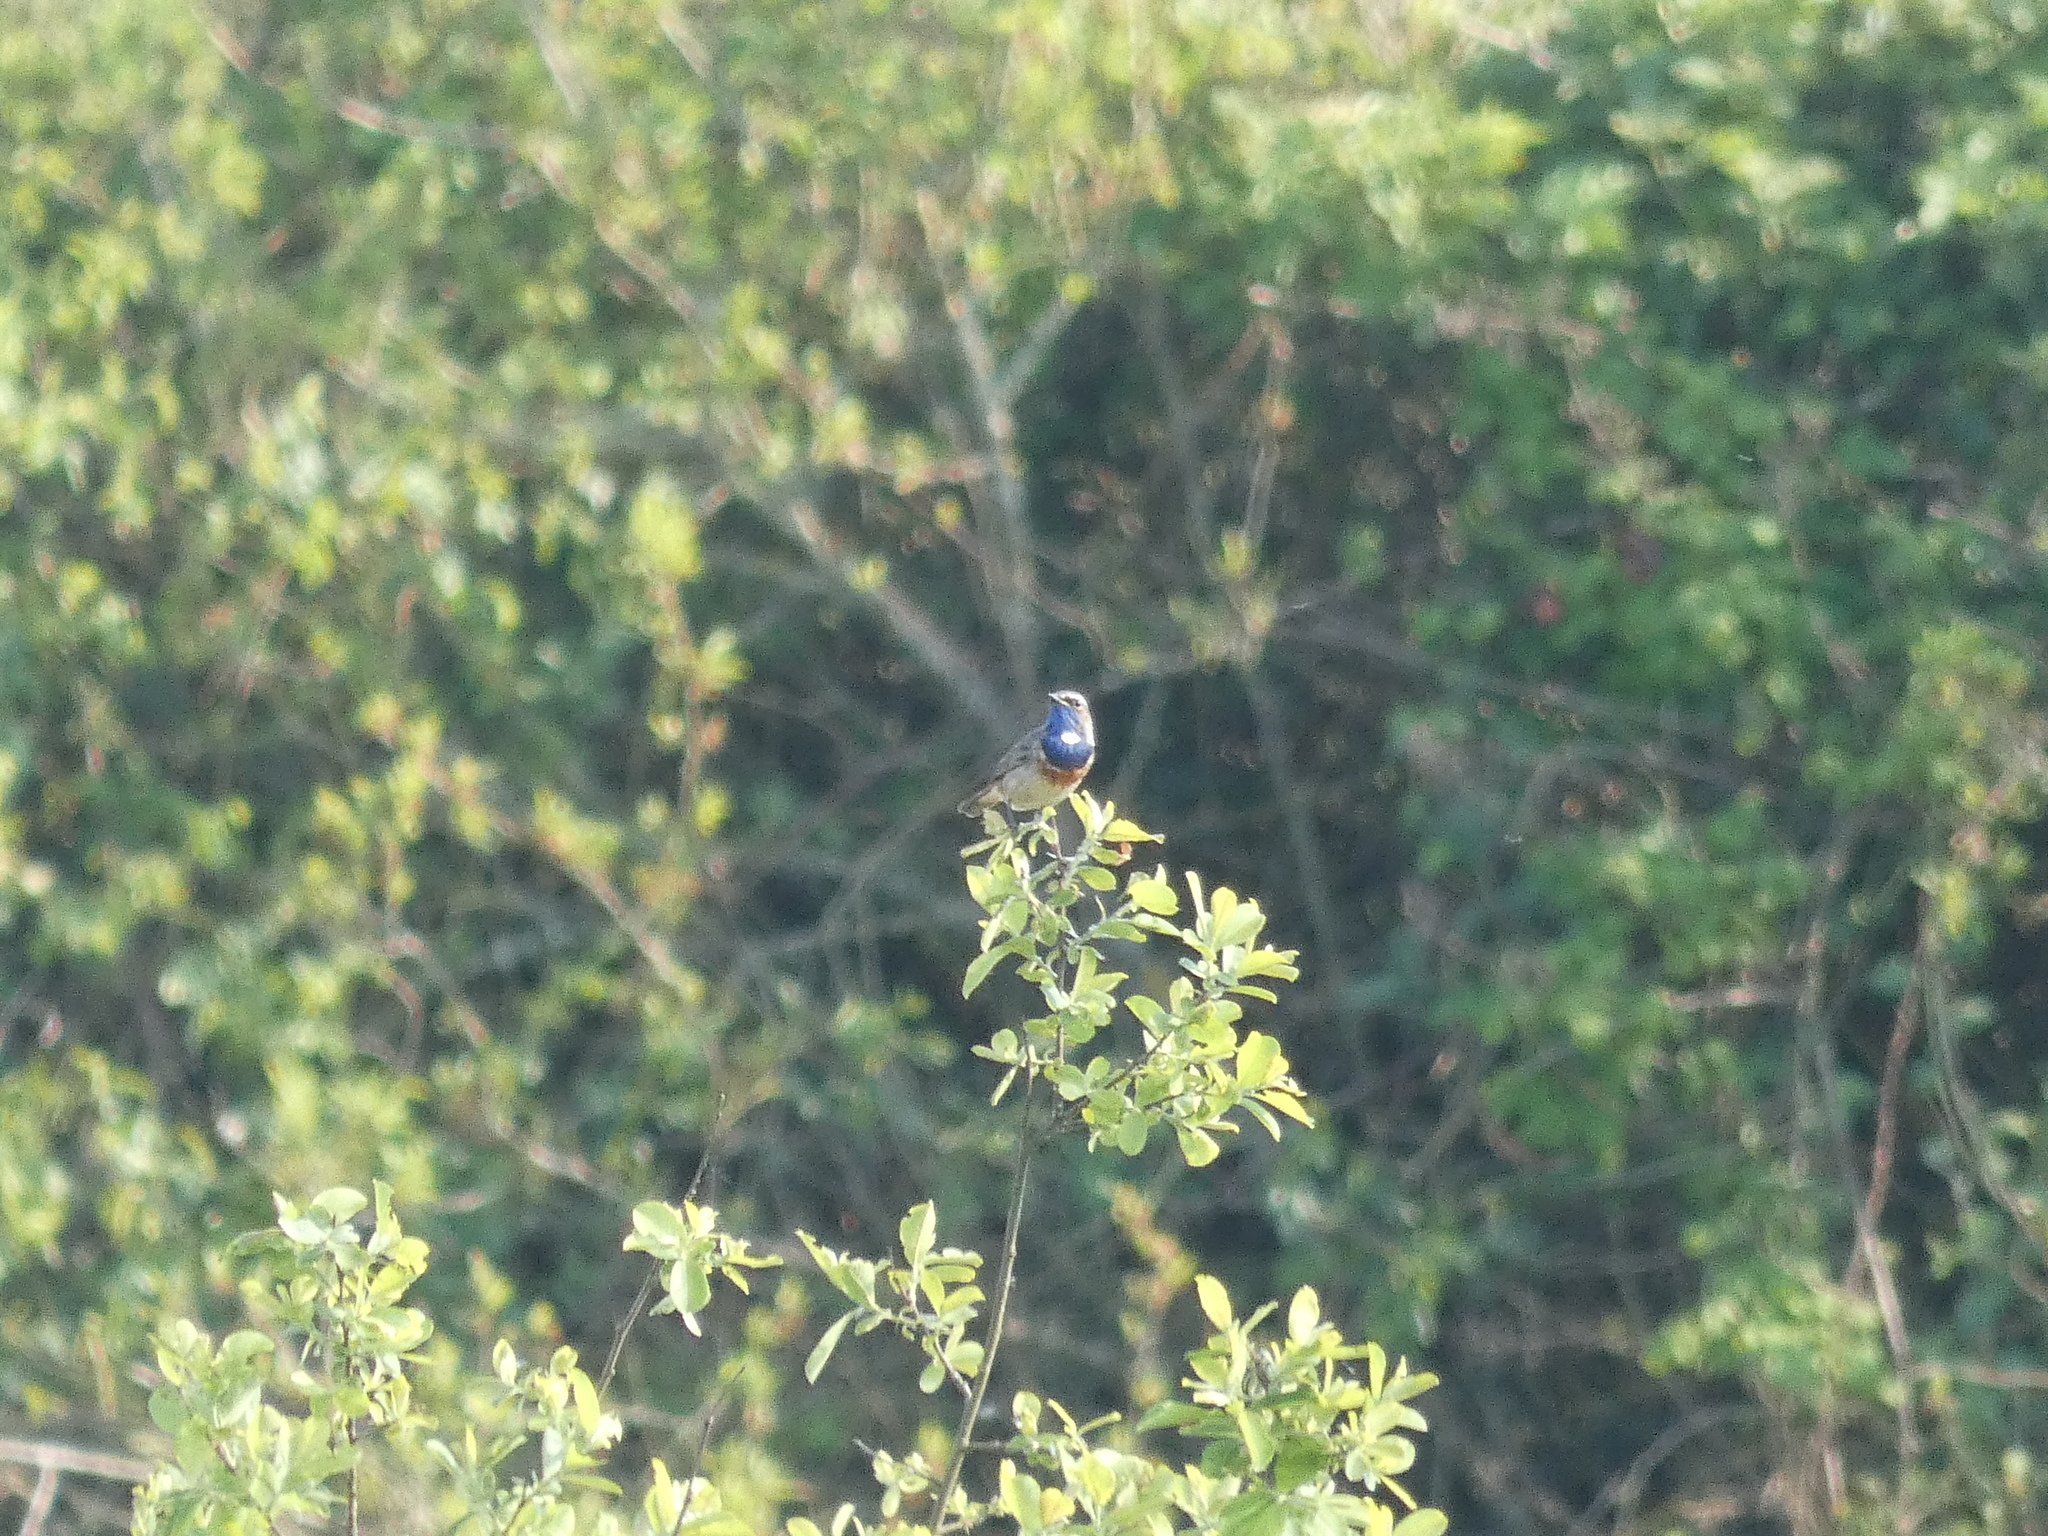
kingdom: Animalia
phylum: Chordata
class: Aves
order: Passeriformes
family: Muscicapidae
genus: Luscinia
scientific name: Luscinia svecica
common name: Bluethroat
